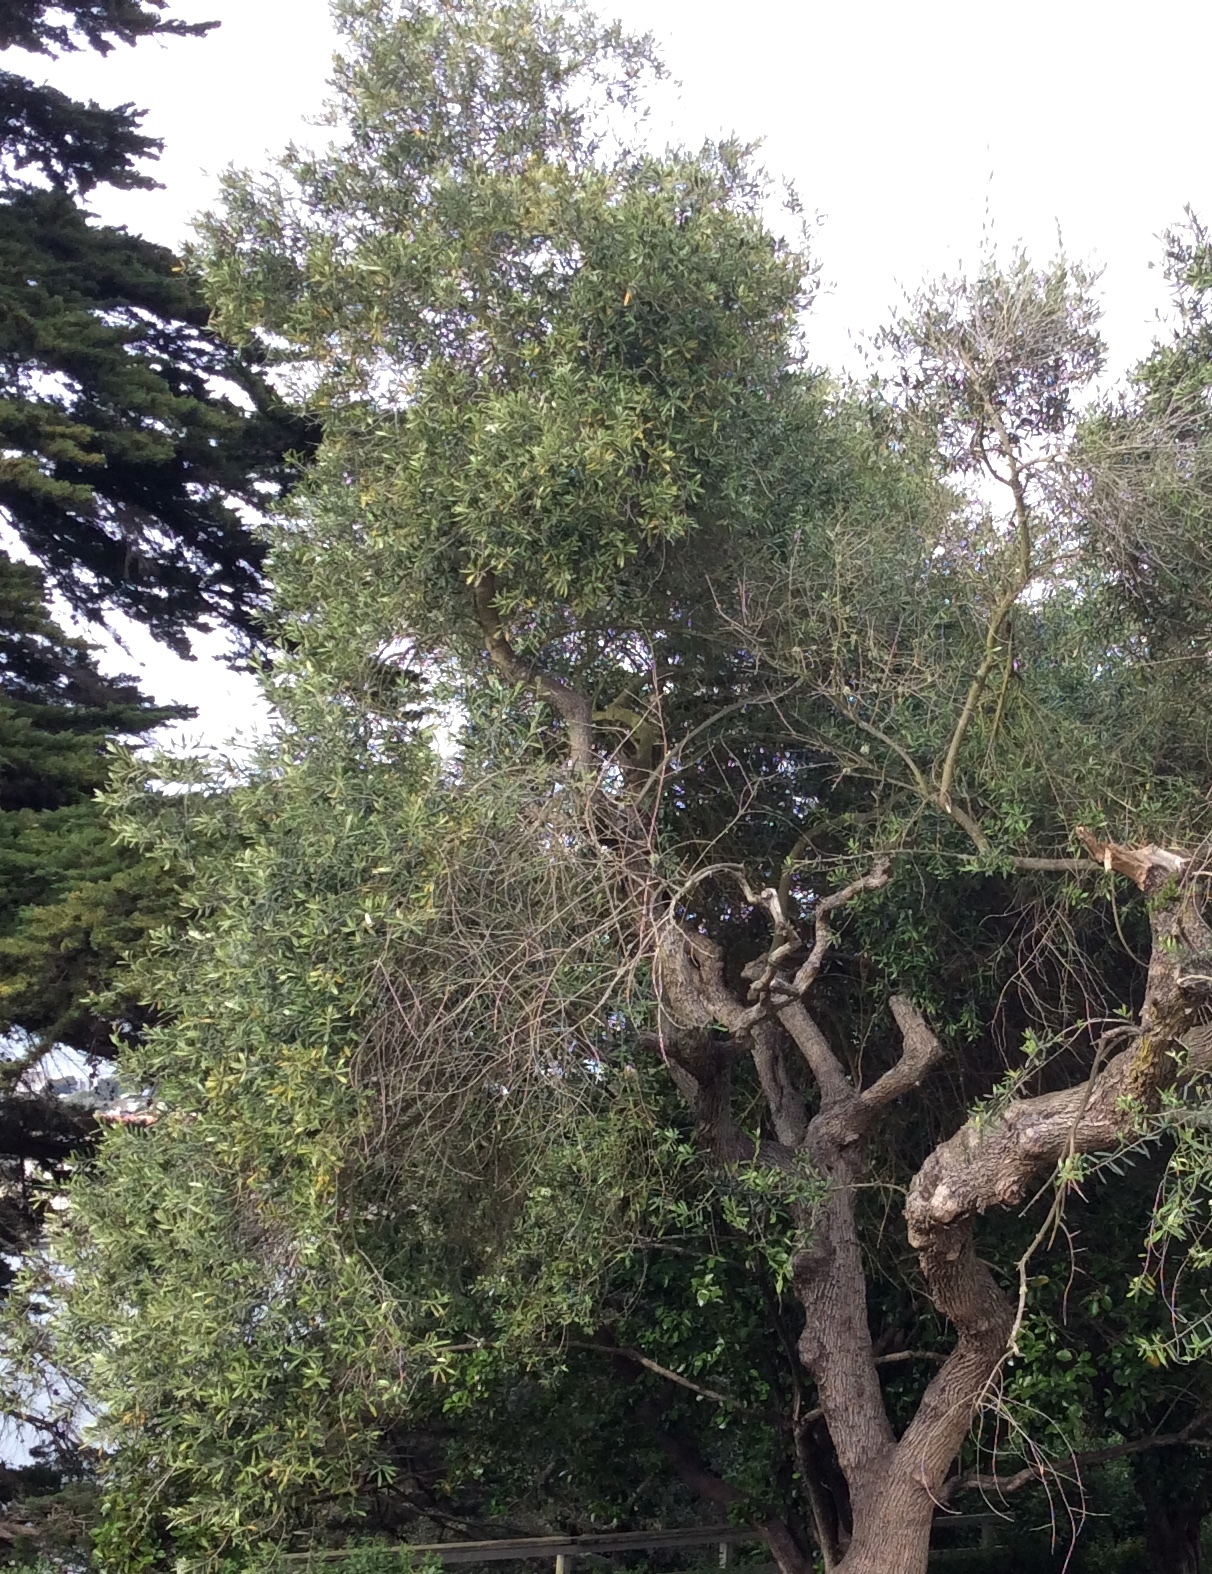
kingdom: Plantae
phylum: Tracheophyta
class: Magnoliopsida
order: Lamiales
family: Oleaceae
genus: Olea
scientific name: Olea europaea
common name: Olive
